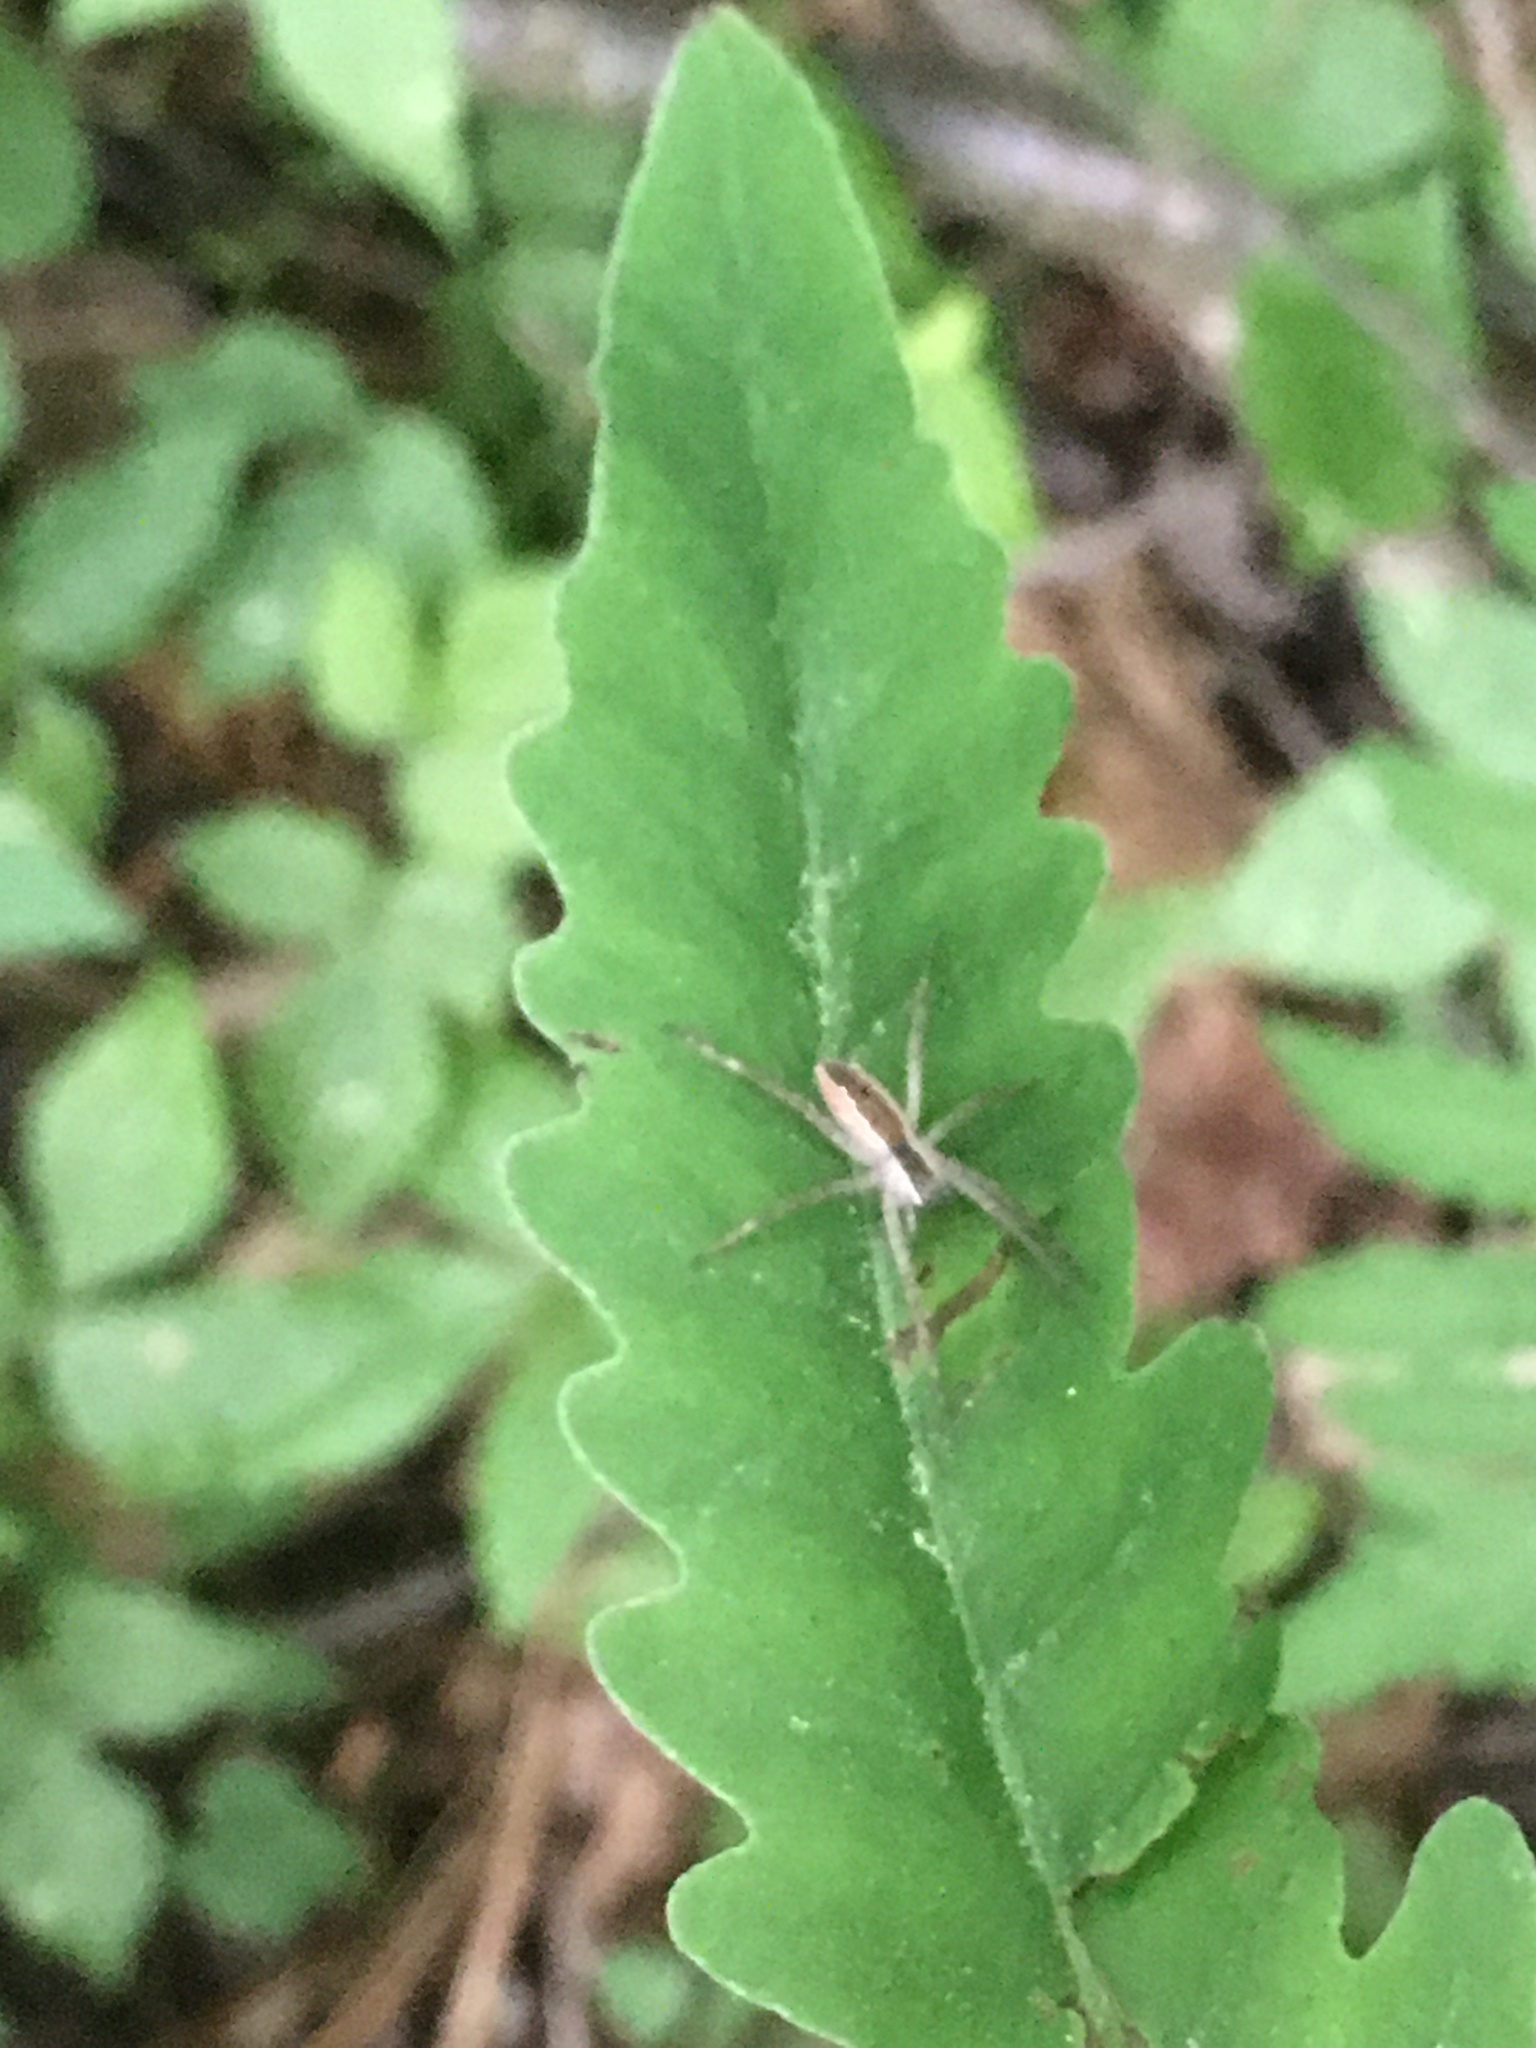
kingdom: Animalia
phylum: Arthropoda
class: Arachnida
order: Araneae
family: Pisauridae
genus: Pisaurina
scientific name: Pisaurina mira
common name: American nursery web spider
